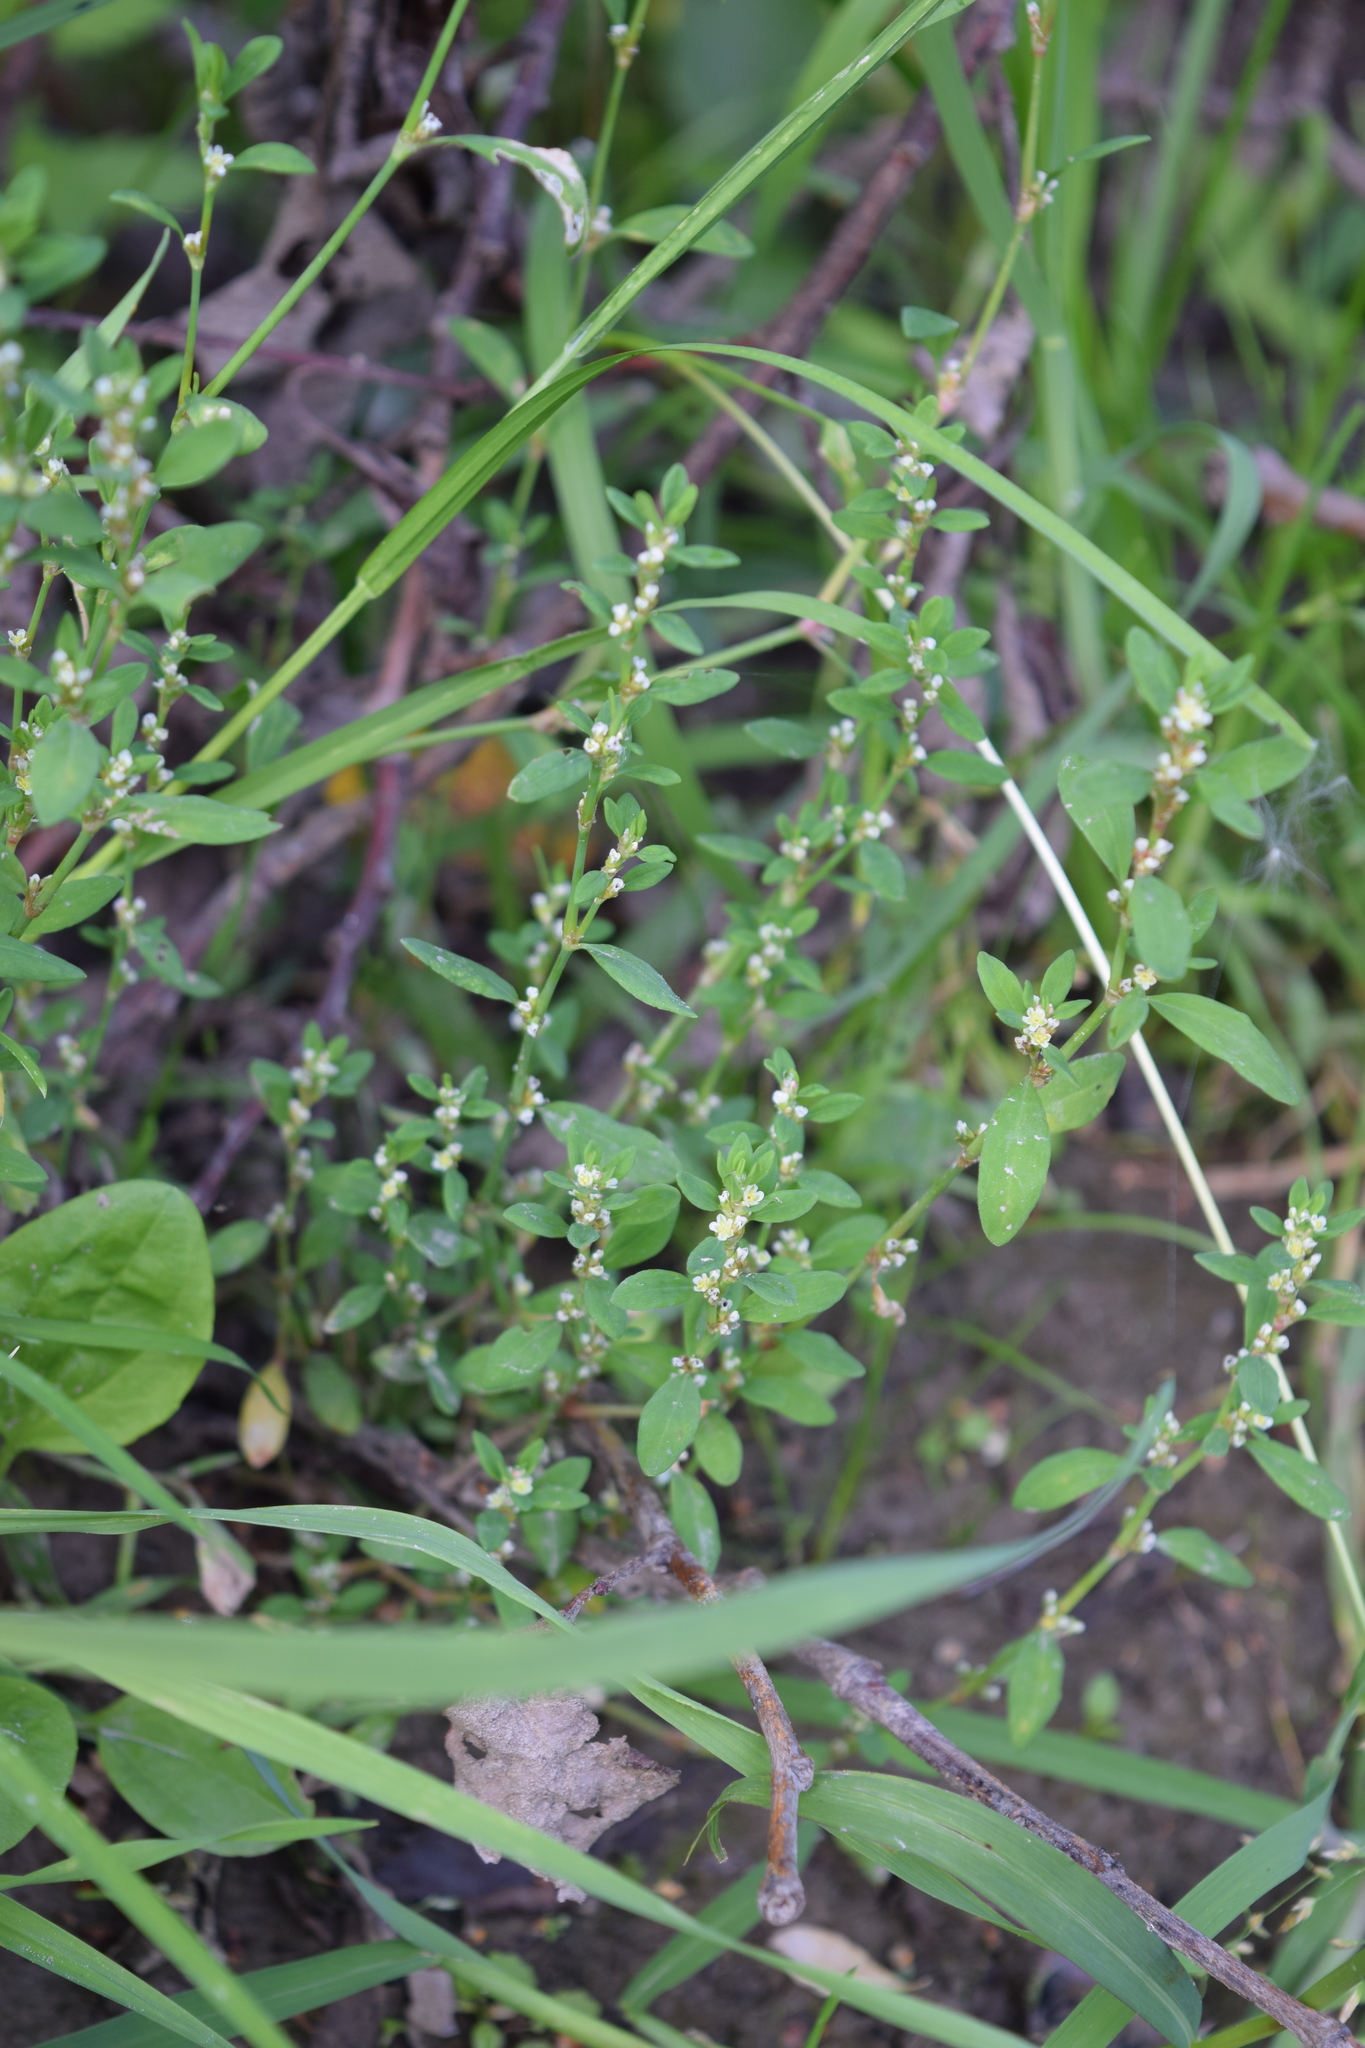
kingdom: Plantae
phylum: Tracheophyta
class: Magnoliopsida
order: Caryophyllales
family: Polygonaceae
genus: Polygonum
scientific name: Polygonum aviculare
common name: Prostrate knotweed
